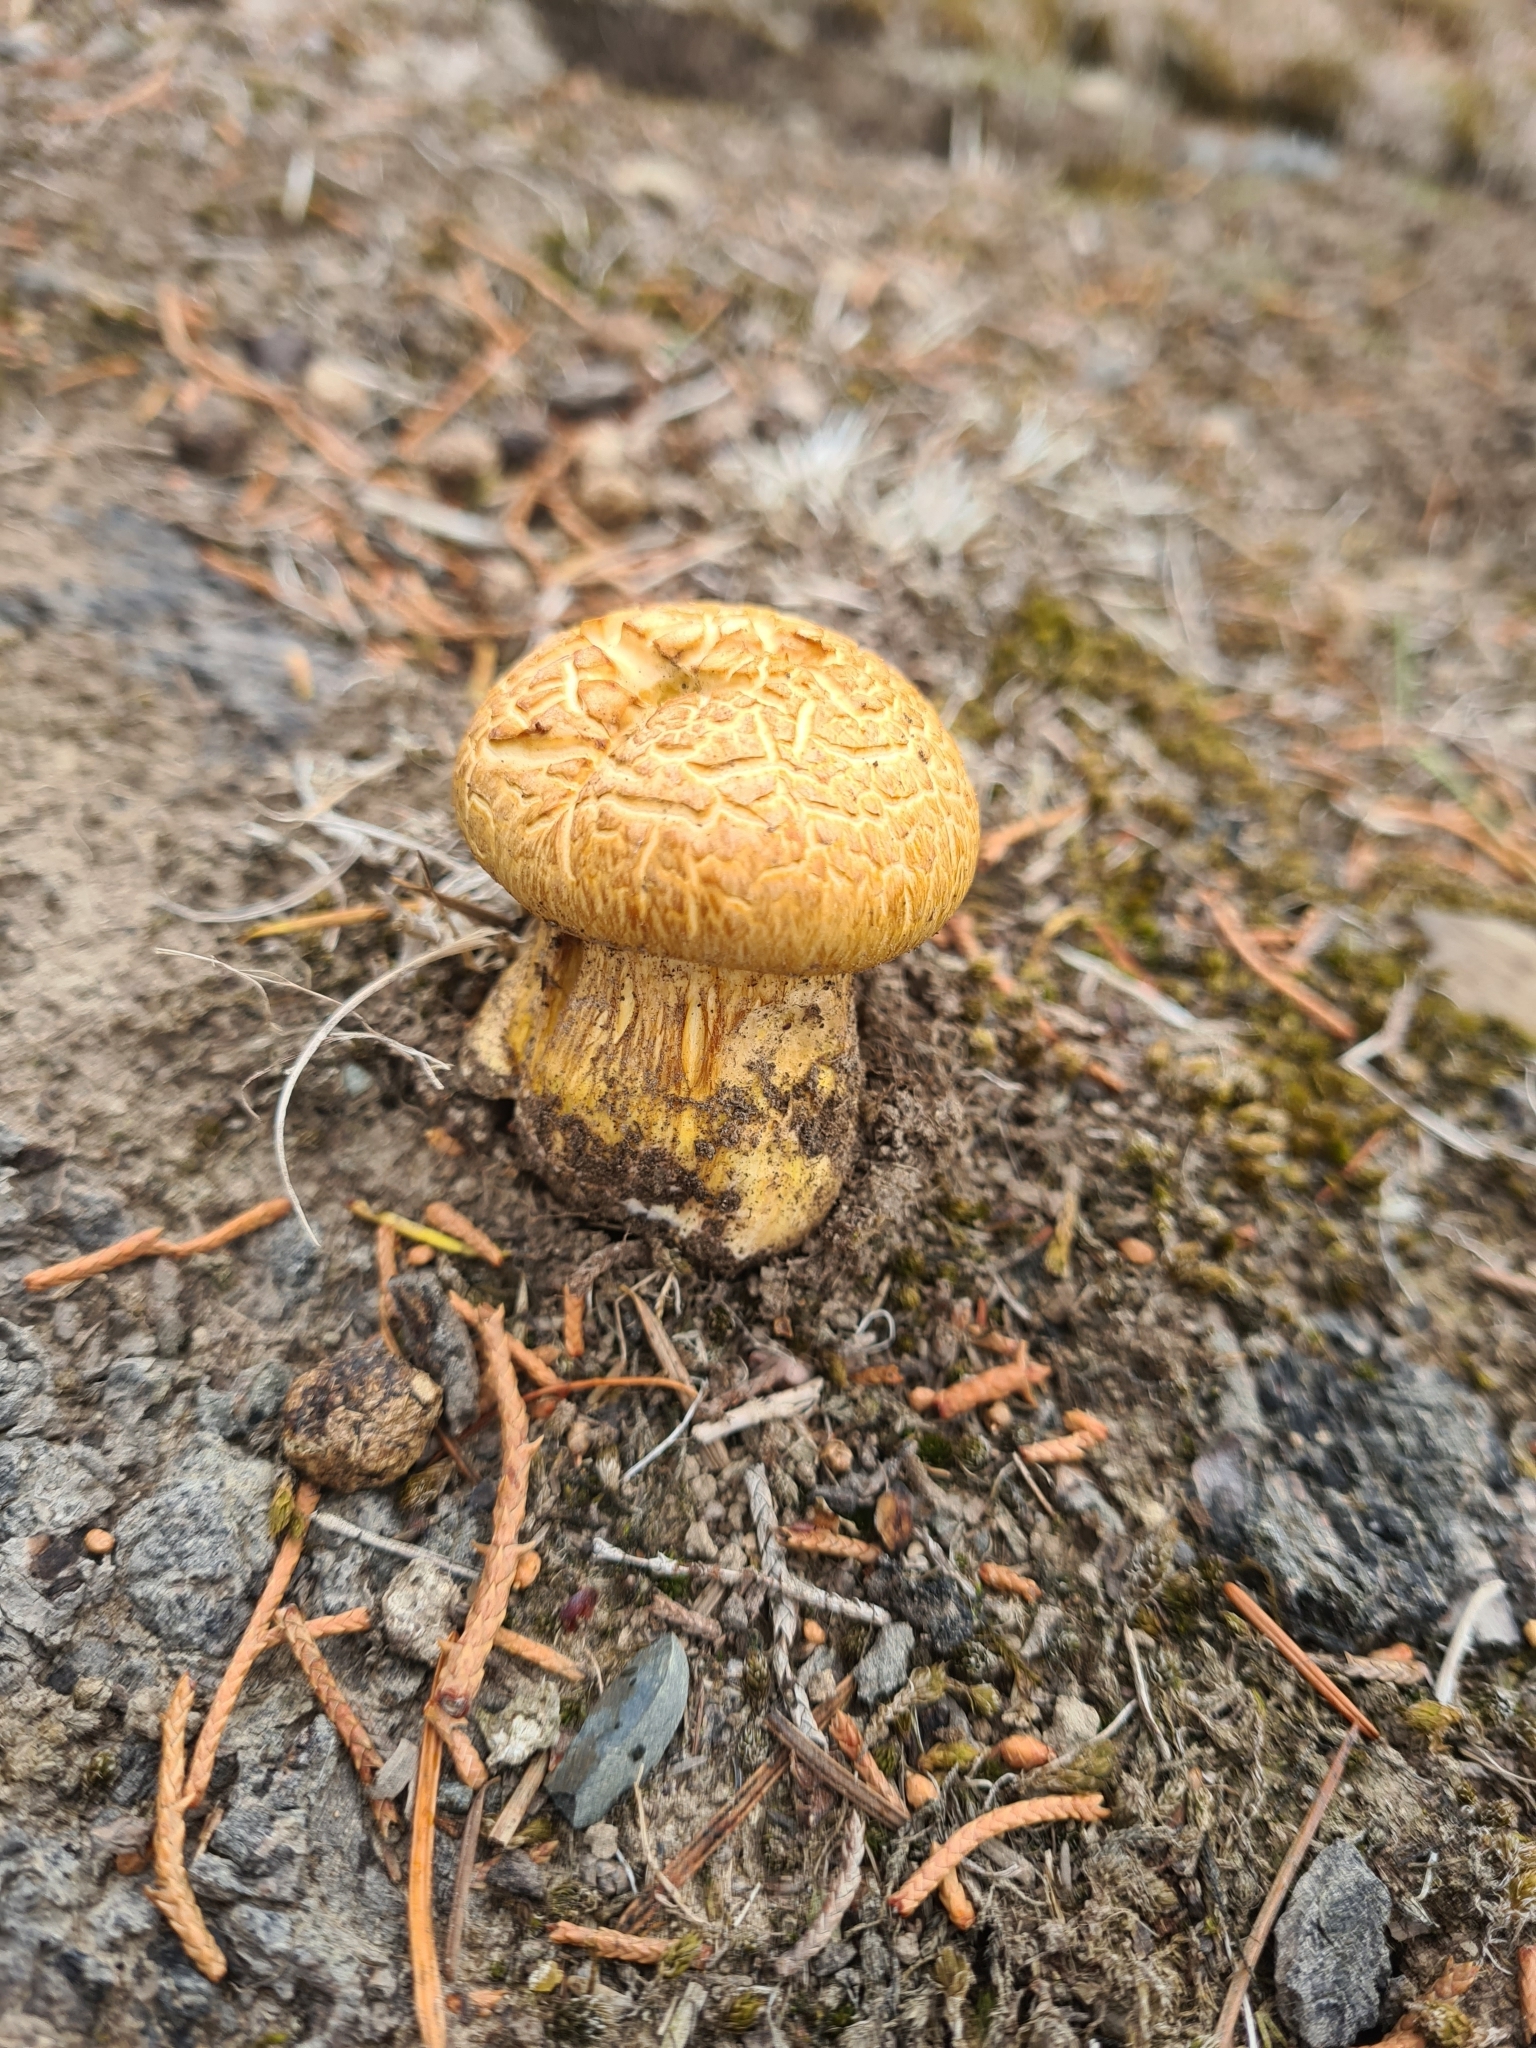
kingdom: Fungi
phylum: Basidiomycota
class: Agaricomycetes
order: Agaricales
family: Hymenogastraceae
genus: Gymnopilus
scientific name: Gymnopilus junonius
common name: Spectacular rustgill
